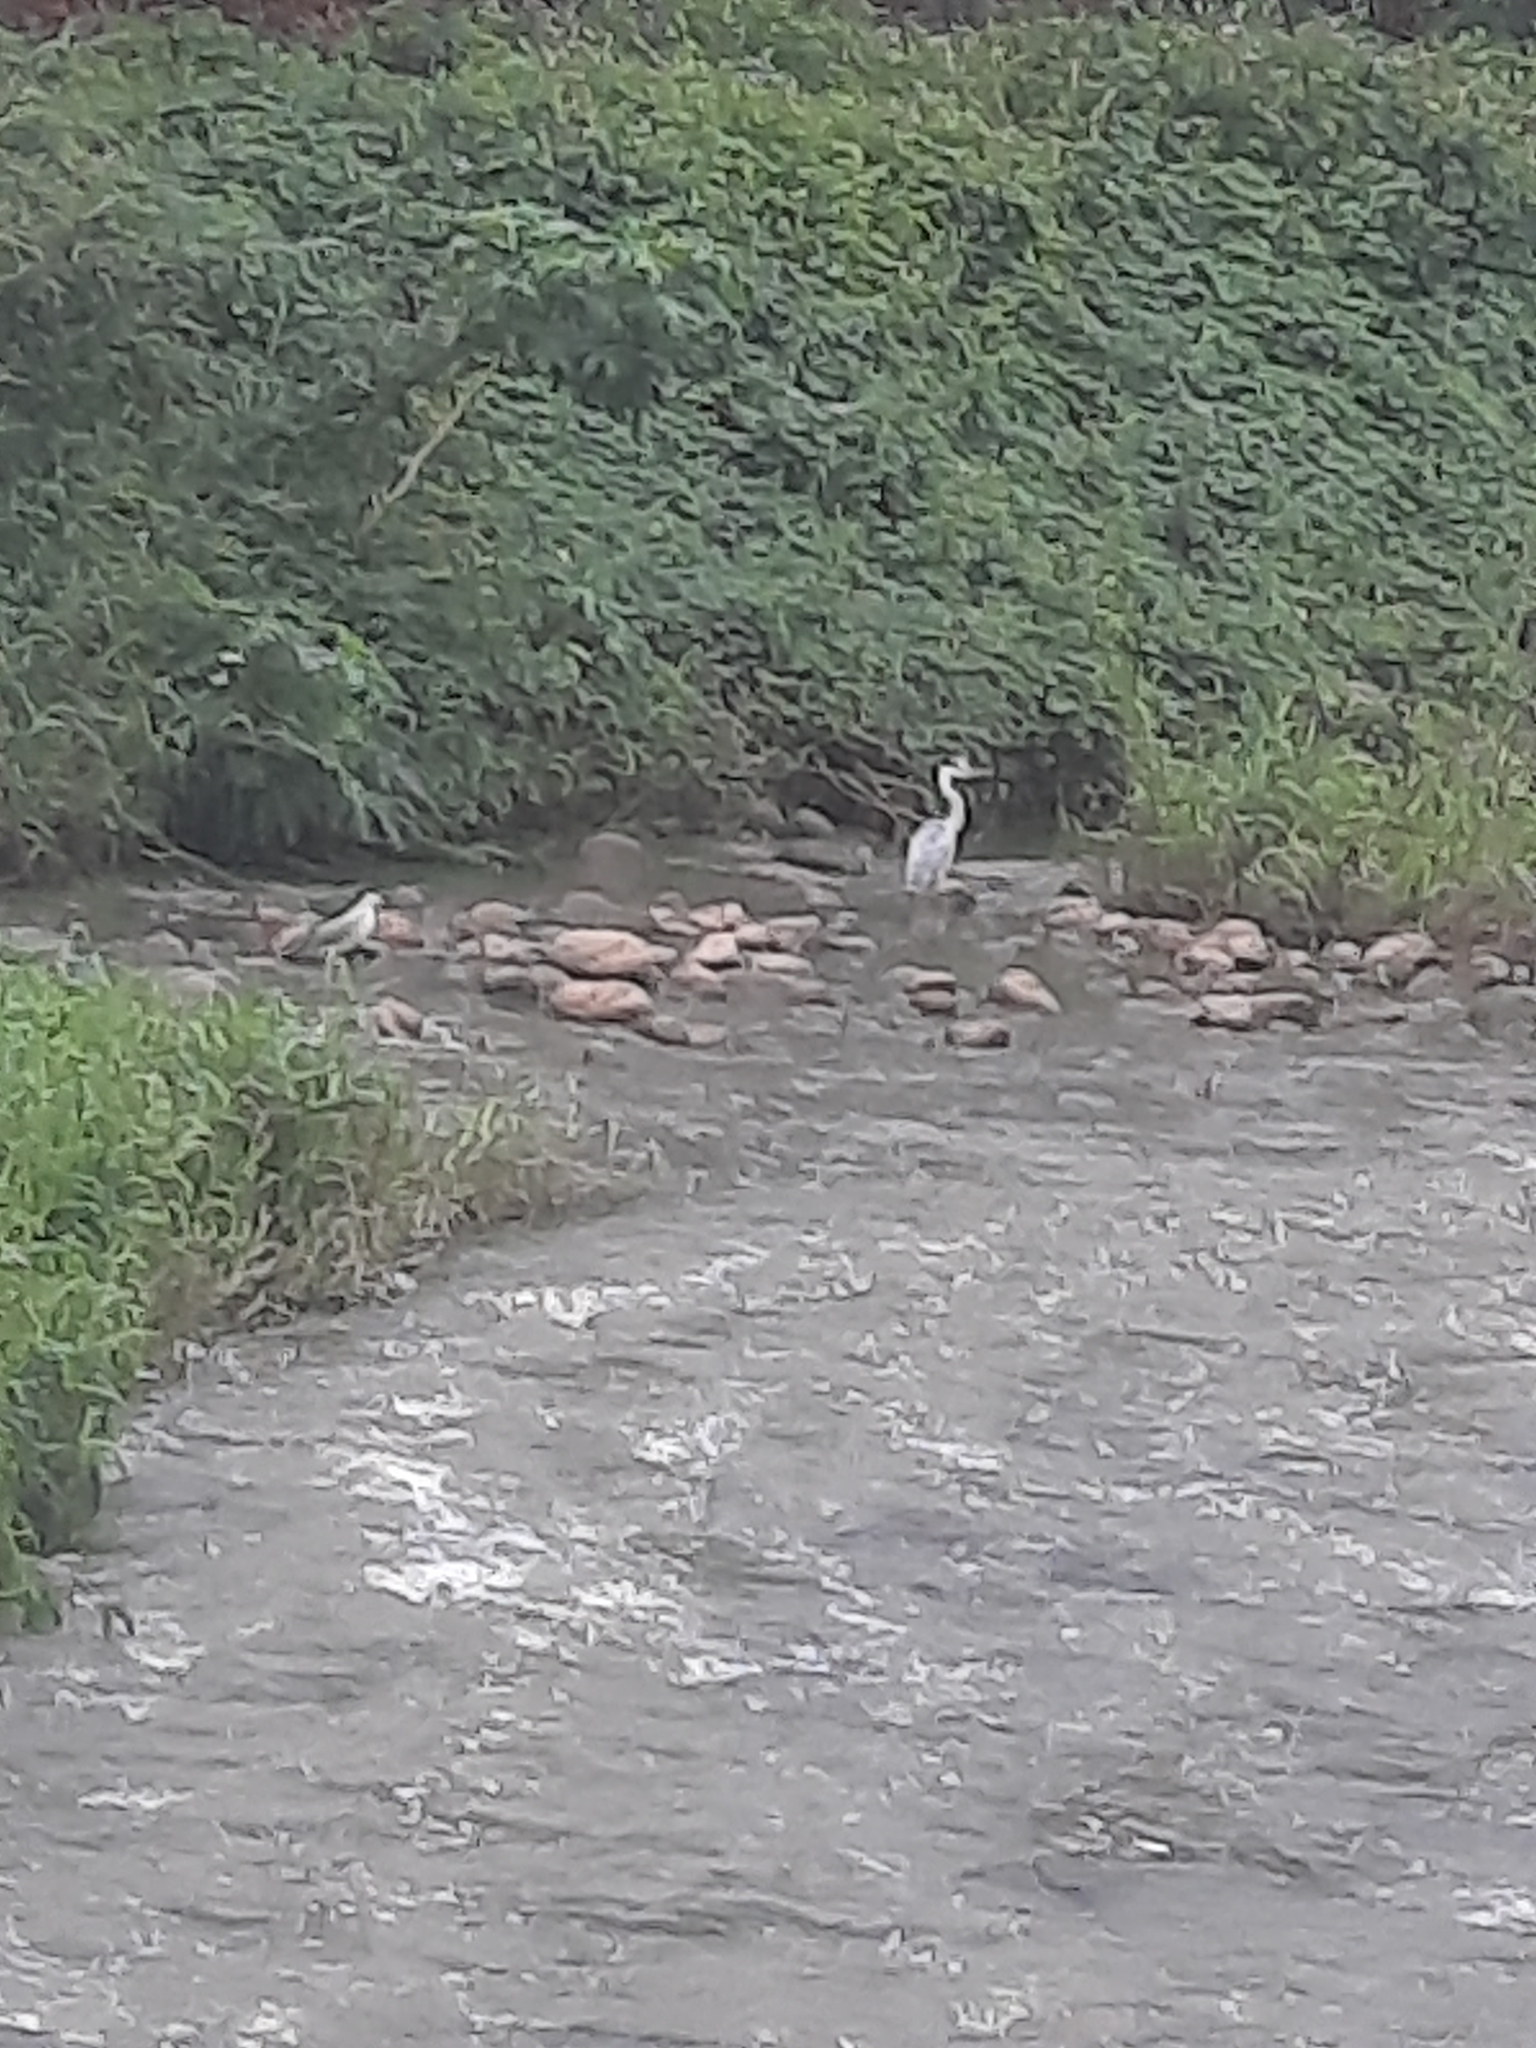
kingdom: Animalia
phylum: Chordata
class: Aves
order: Pelecaniformes
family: Ardeidae
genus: Ardea
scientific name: Ardea cinerea
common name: Grey heron
